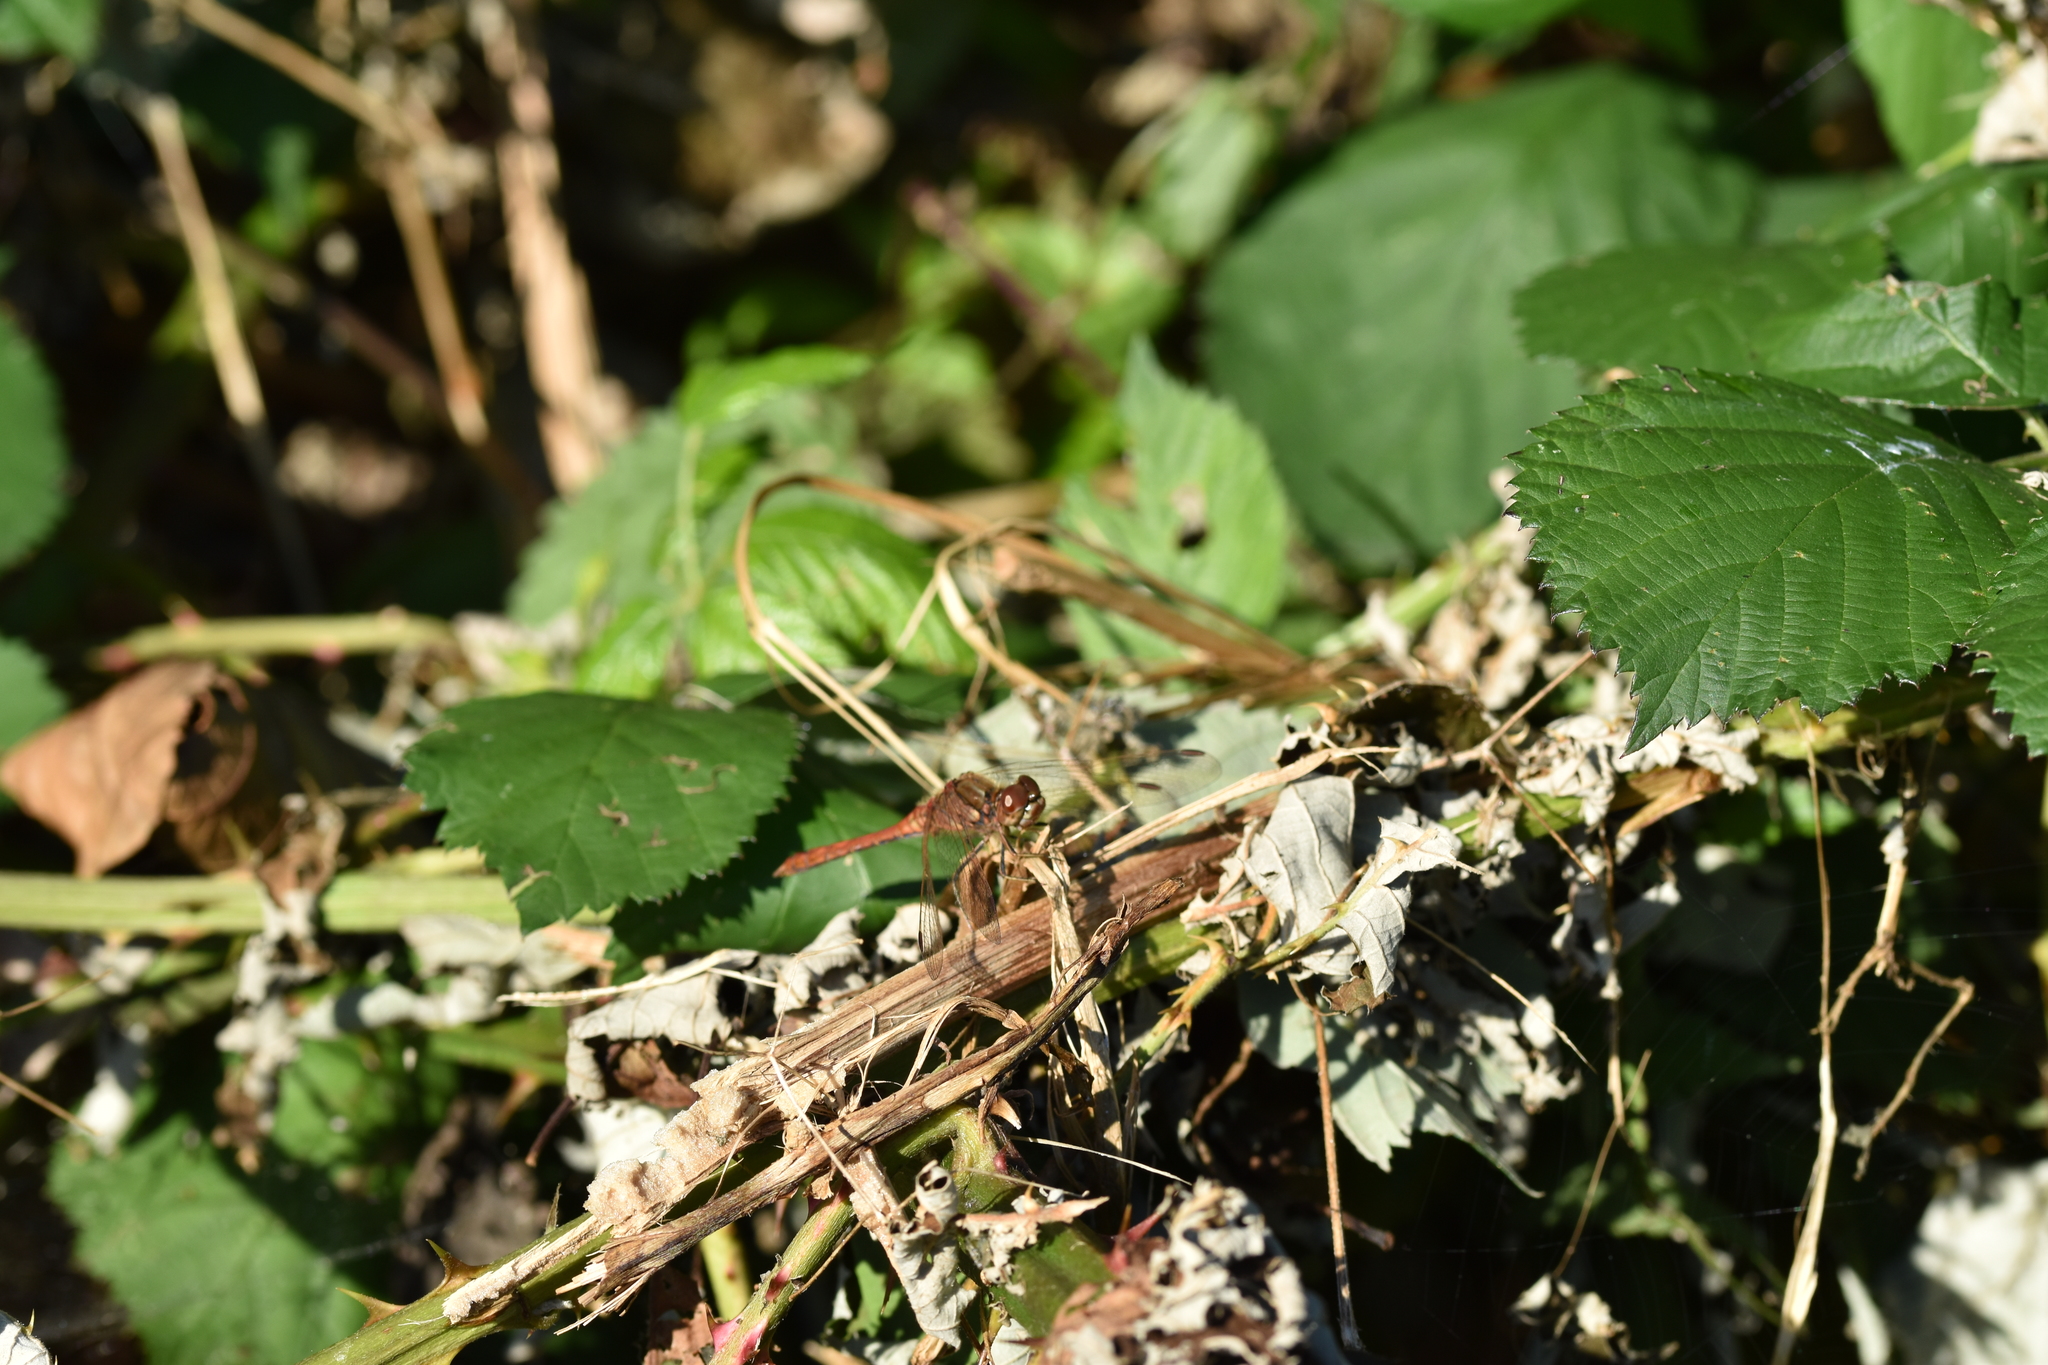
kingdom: Animalia
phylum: Arthropoda
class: Insecta
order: Odonata
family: Libellulidae
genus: Sympetrum
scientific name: Sympetrum striolatum
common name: Common darter
